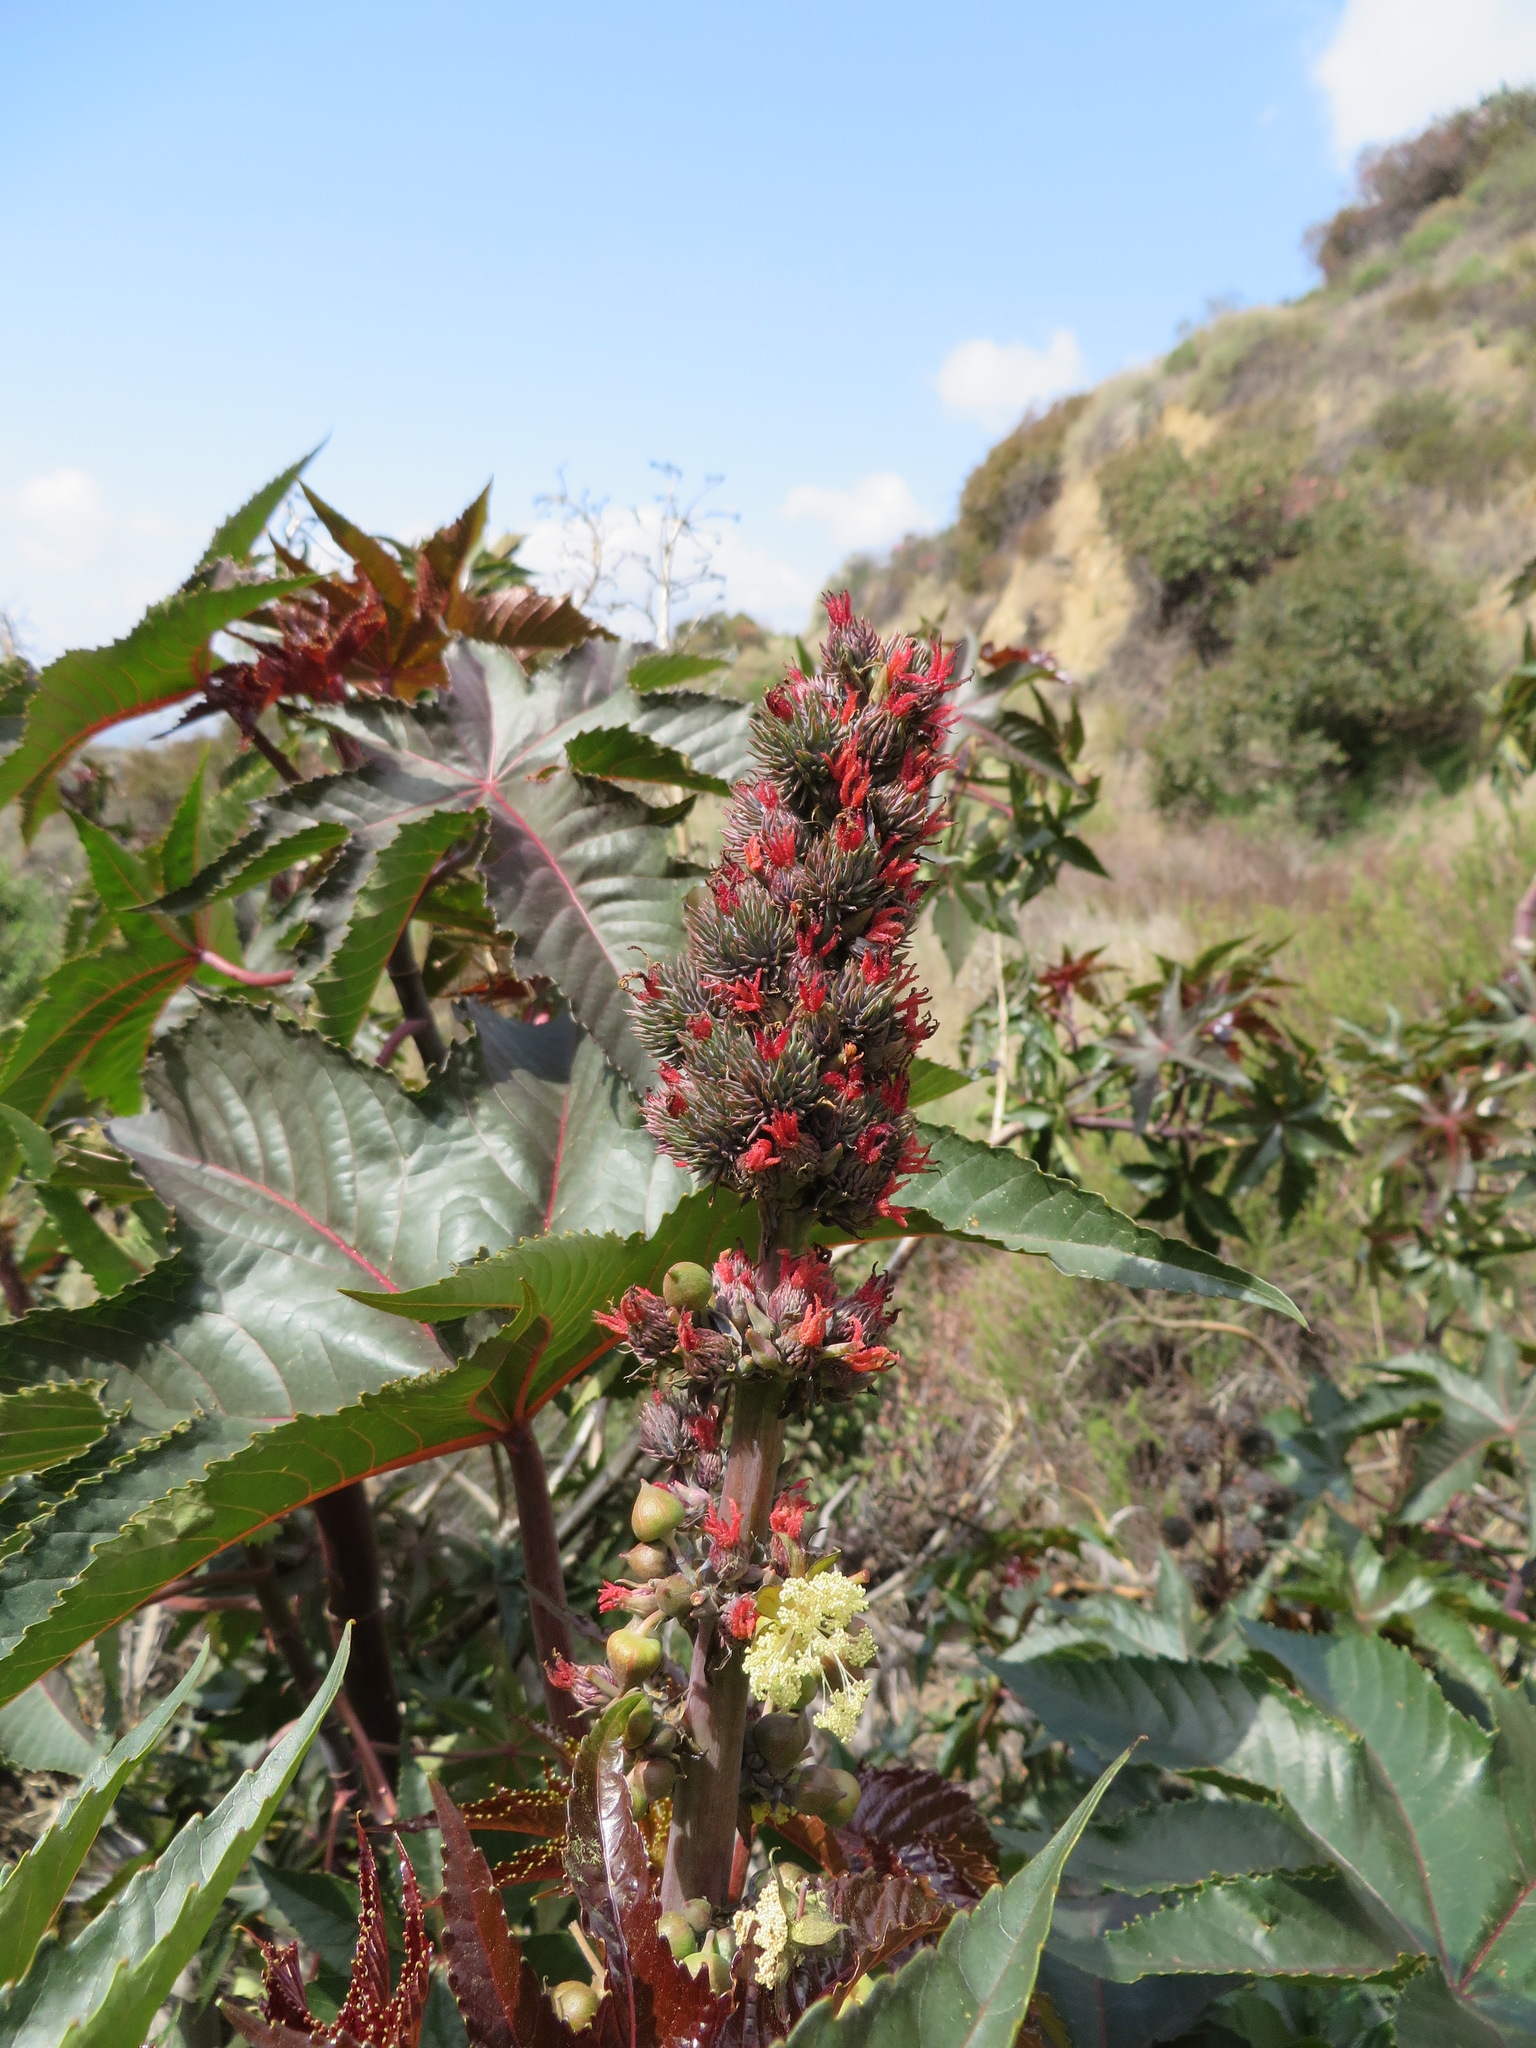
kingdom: Plantae
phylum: Tracheophyta
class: Magnoliopsida
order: Malpighiales
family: Euphorbiaceae
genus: Ricinus
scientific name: Ricinus communis
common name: Castor-oil-plant
